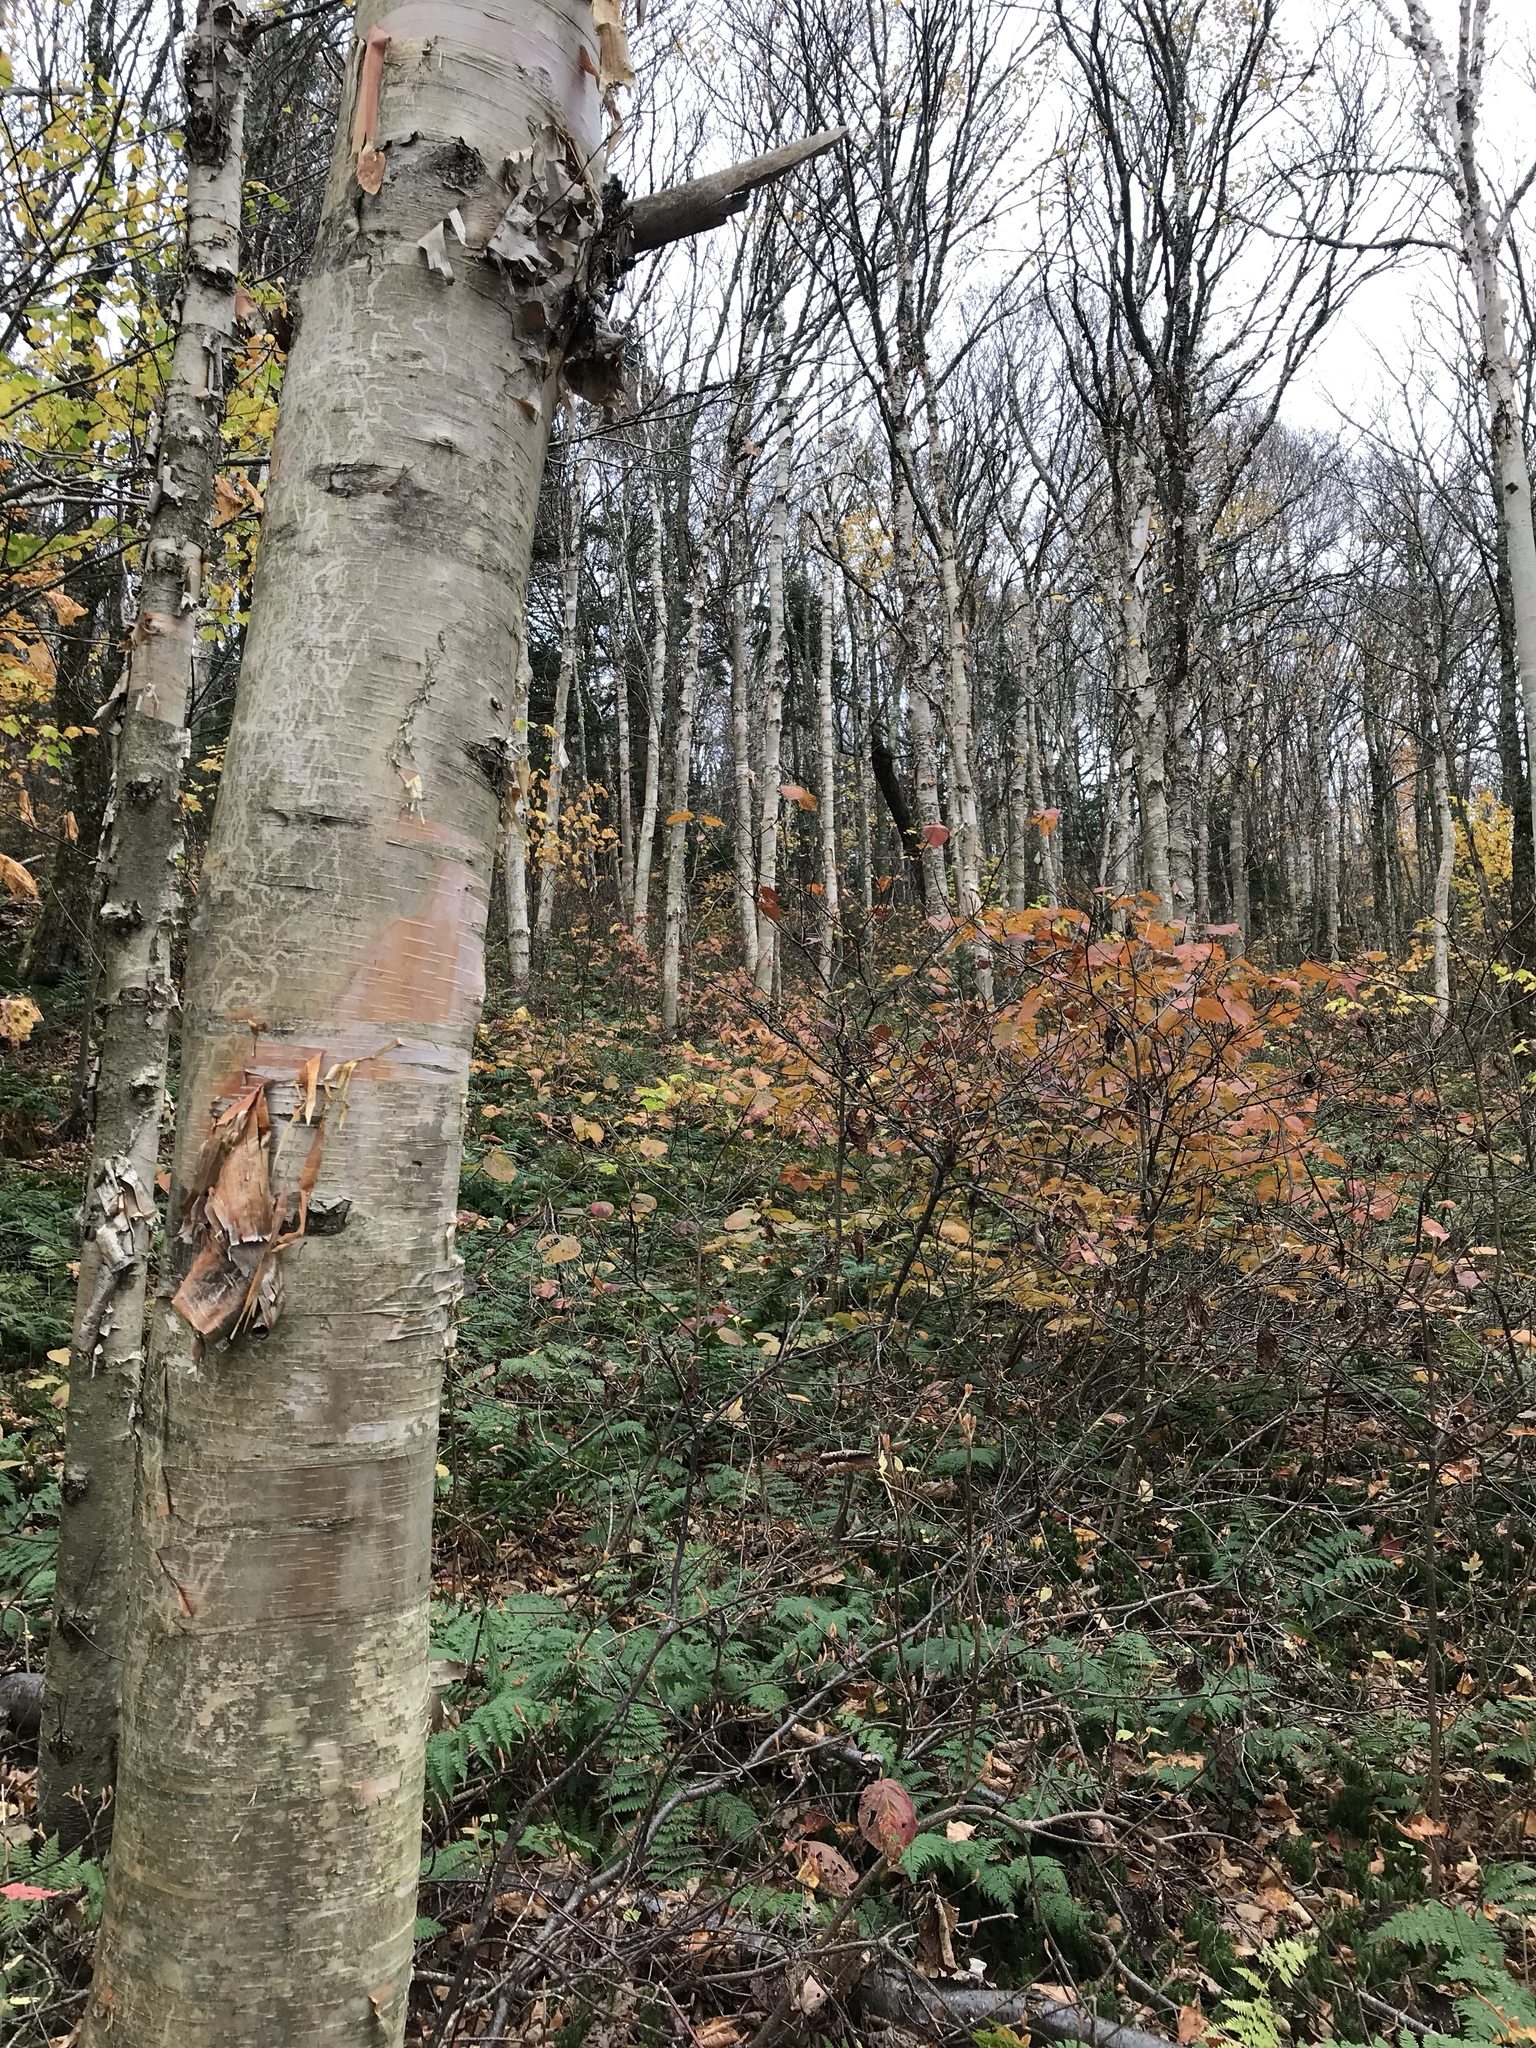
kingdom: Plantae
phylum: Tracheophyta
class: Magnoliopsida
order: Fagales
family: Betulaceae
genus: Betula
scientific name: Betula cordifolia
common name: Mountain white birch
